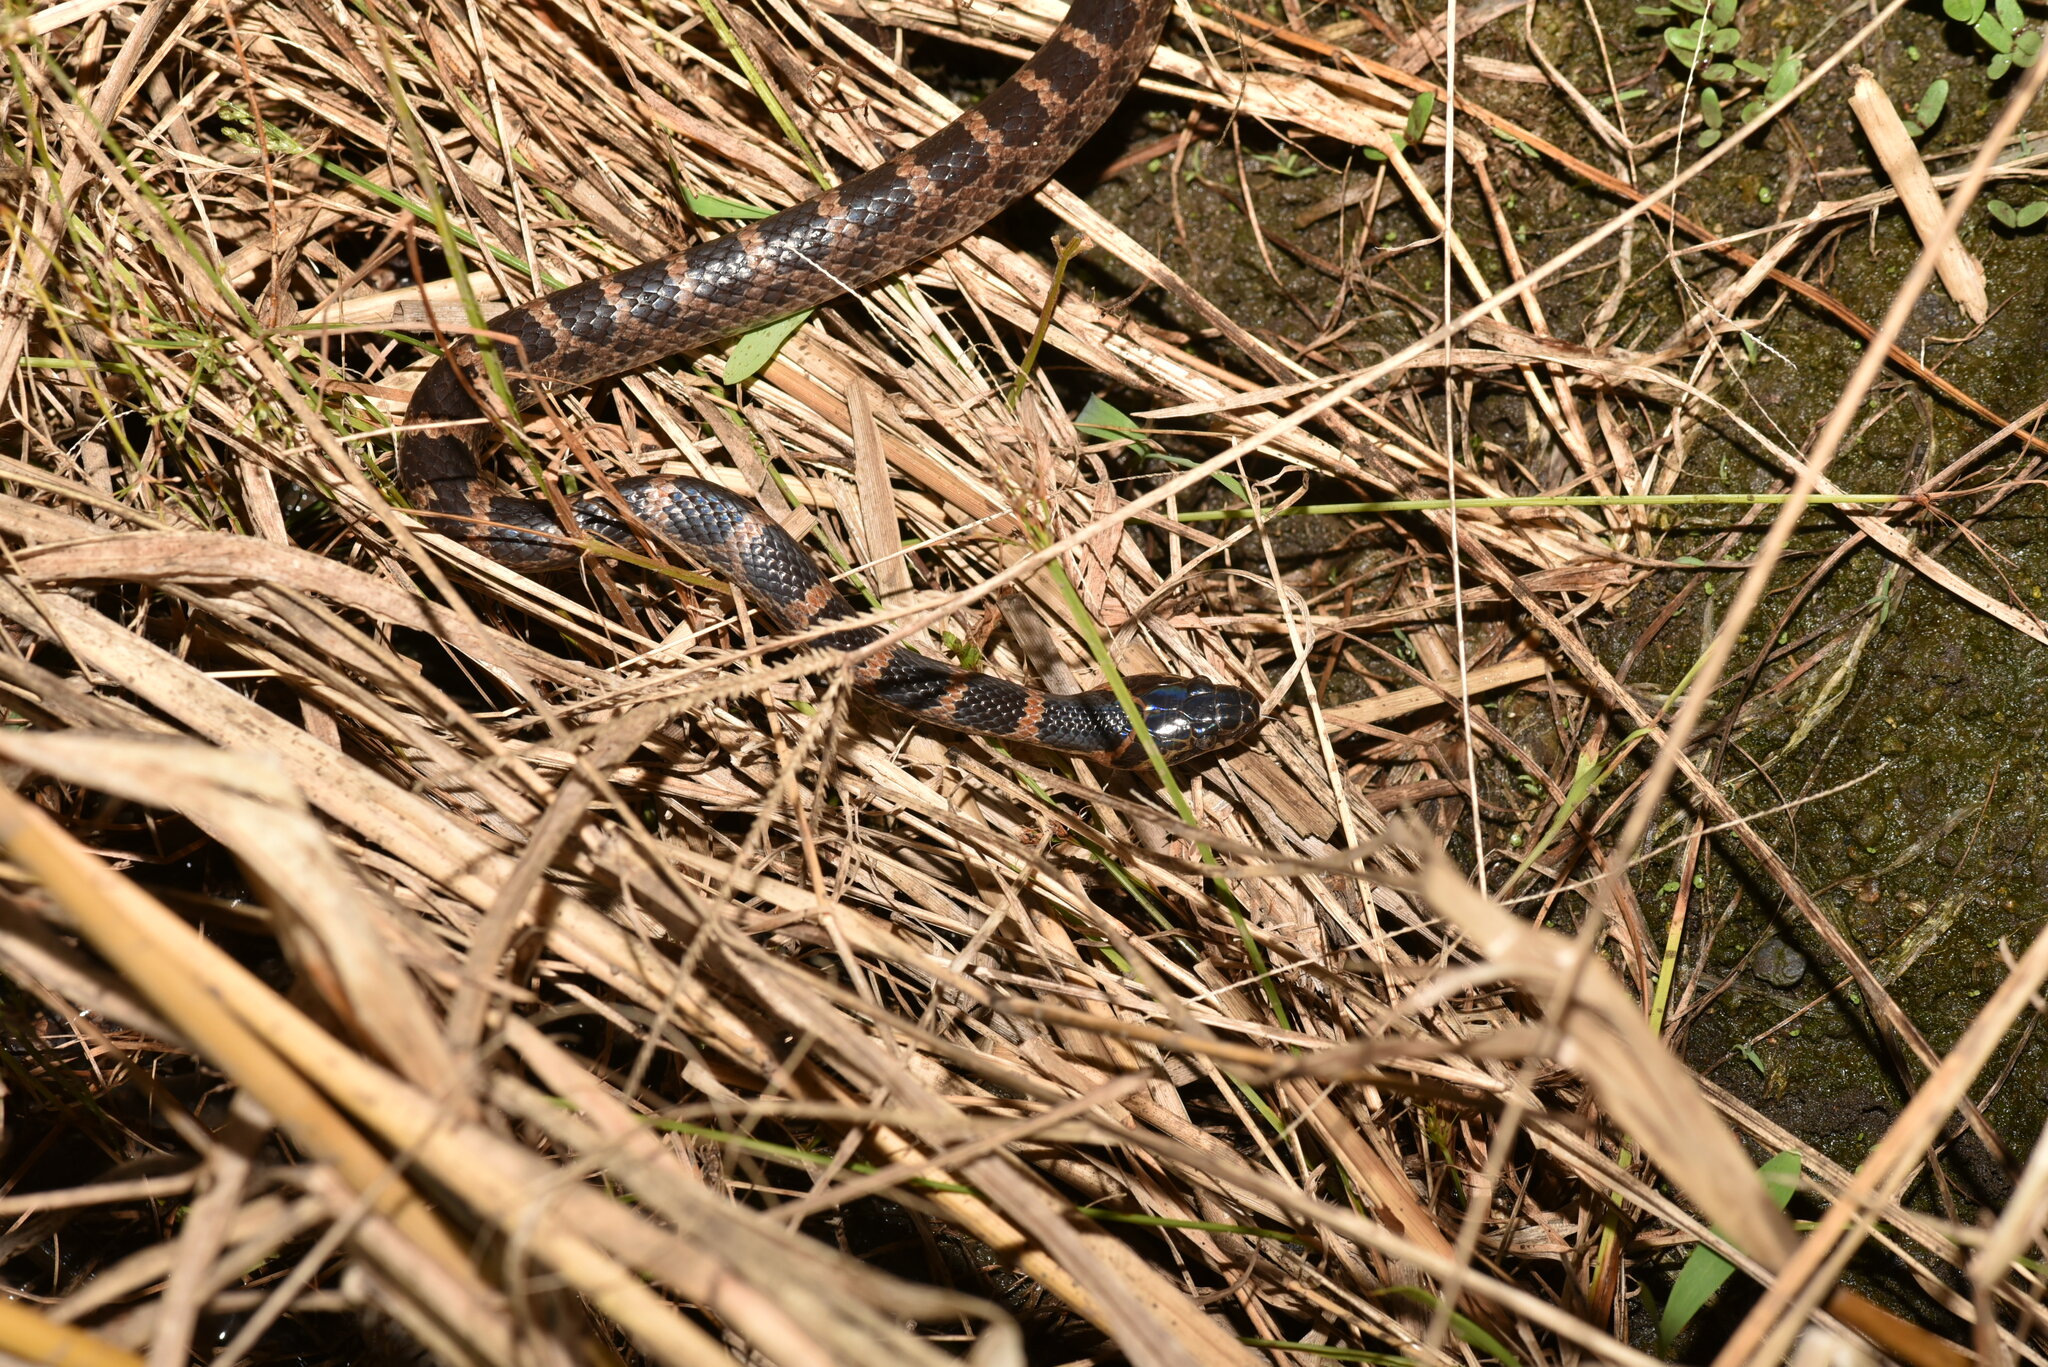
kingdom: Animalia
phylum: Chordata
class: Squamata
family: Colubridae
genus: Lycodon
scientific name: Lycodon rufozonatus
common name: Red-banded snake
